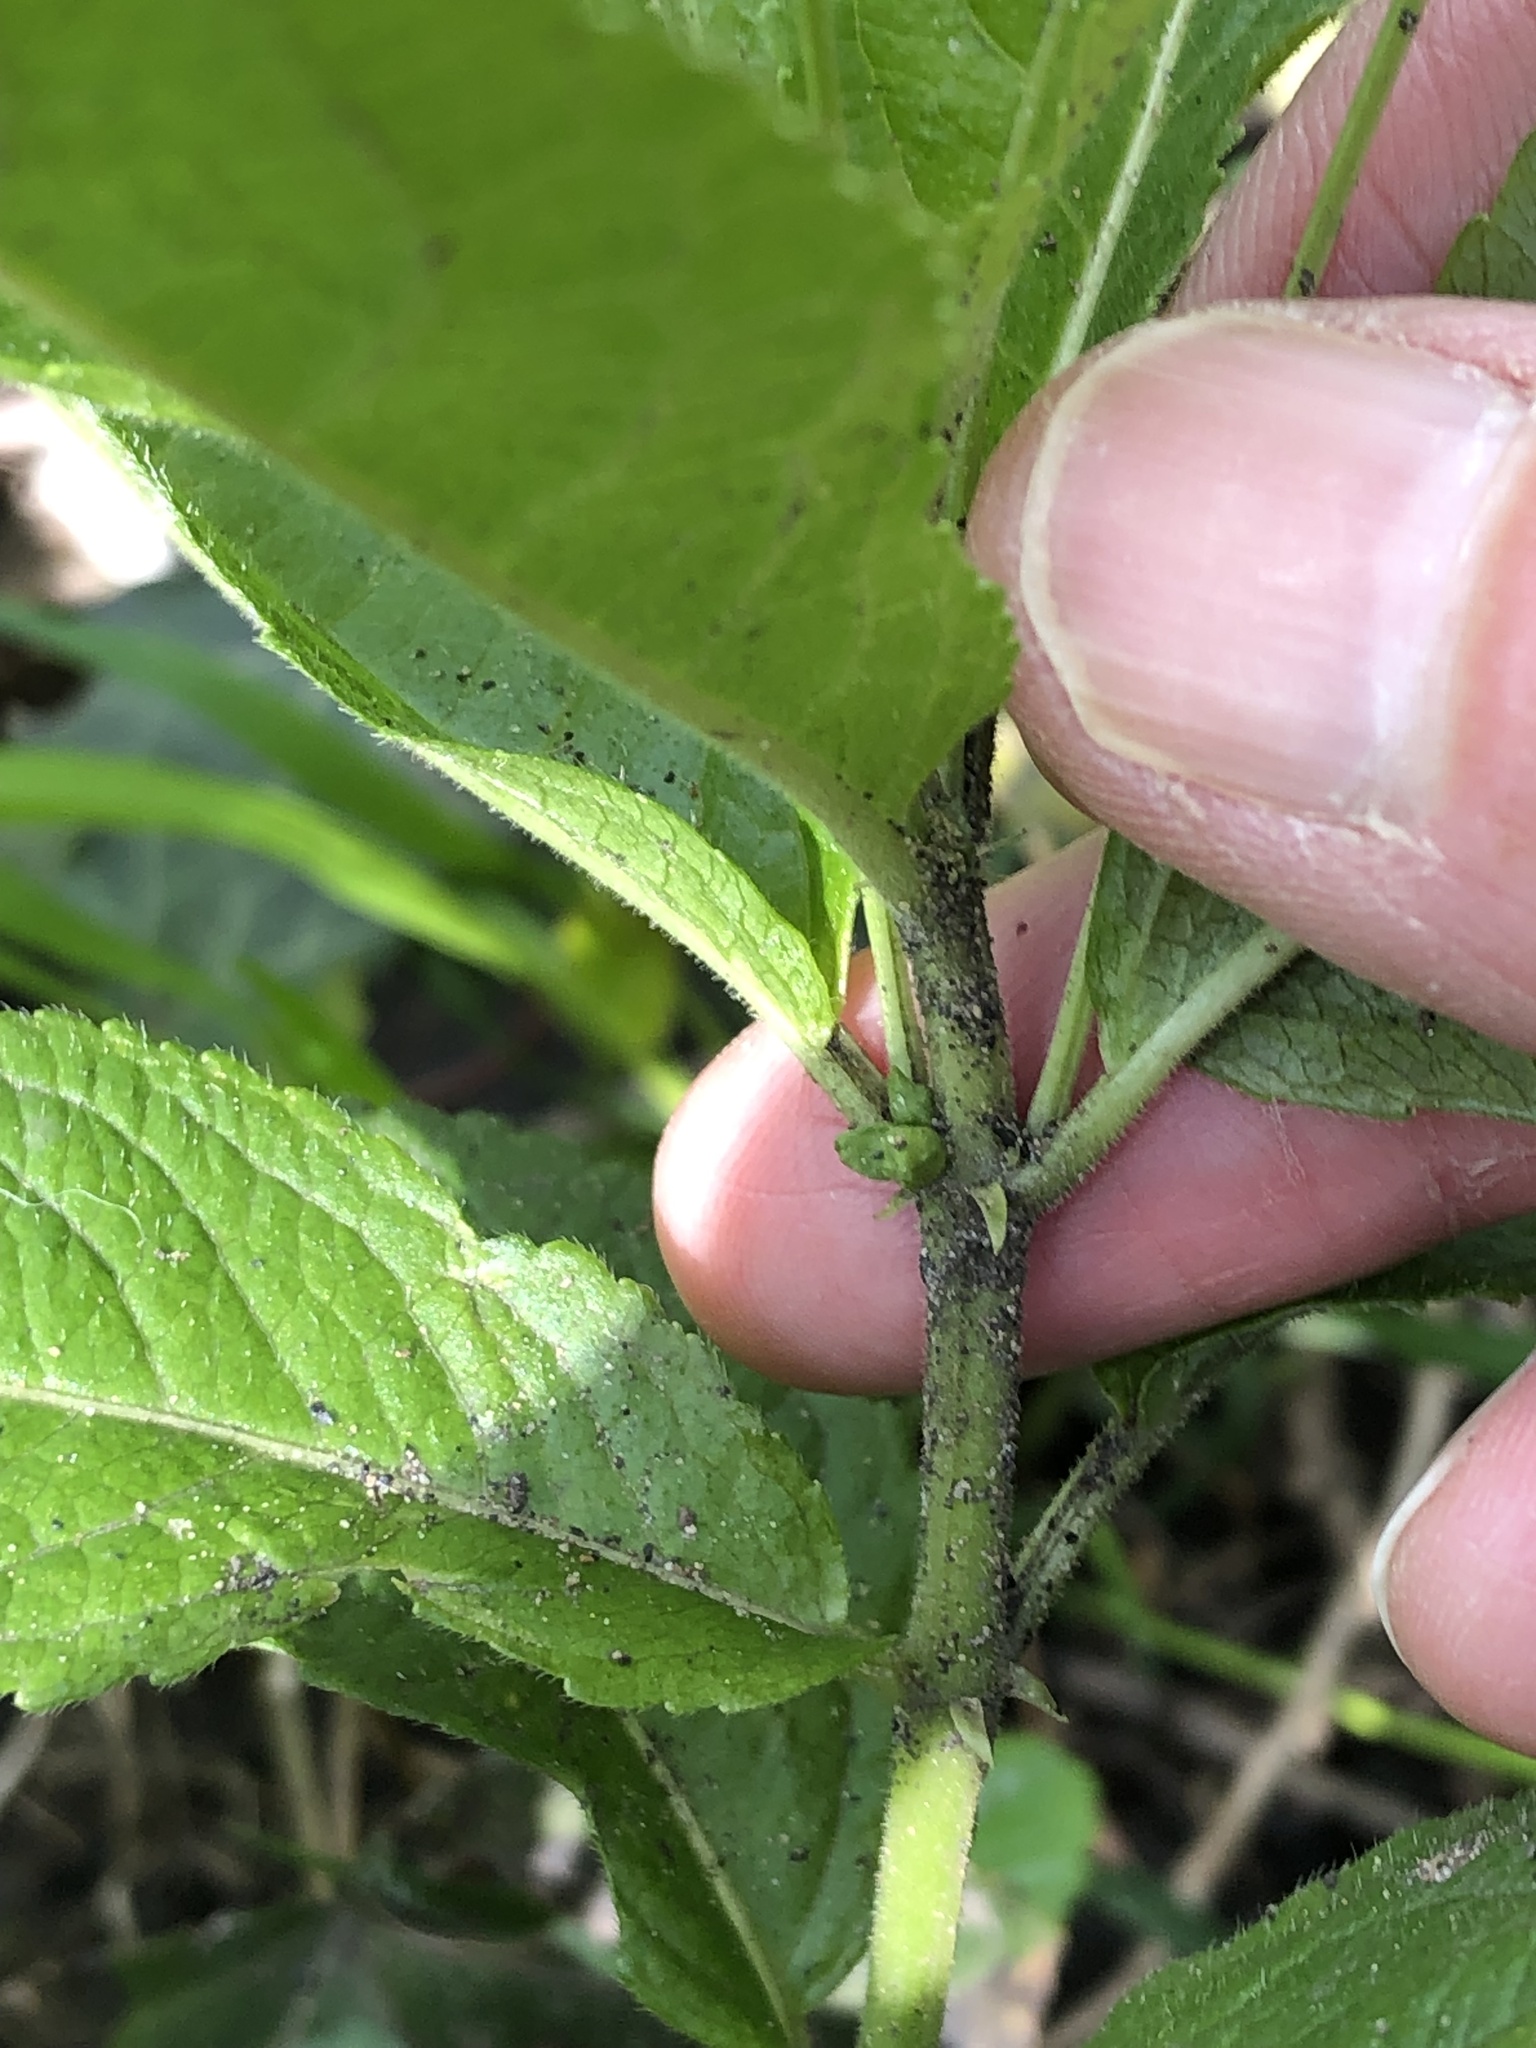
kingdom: Plantae
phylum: Tracheophyta
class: Magnoliopsida
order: Malpighiales
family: Euphorbiaceae
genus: Mercurialis
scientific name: Mercurialis perennis
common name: Dog mercury
